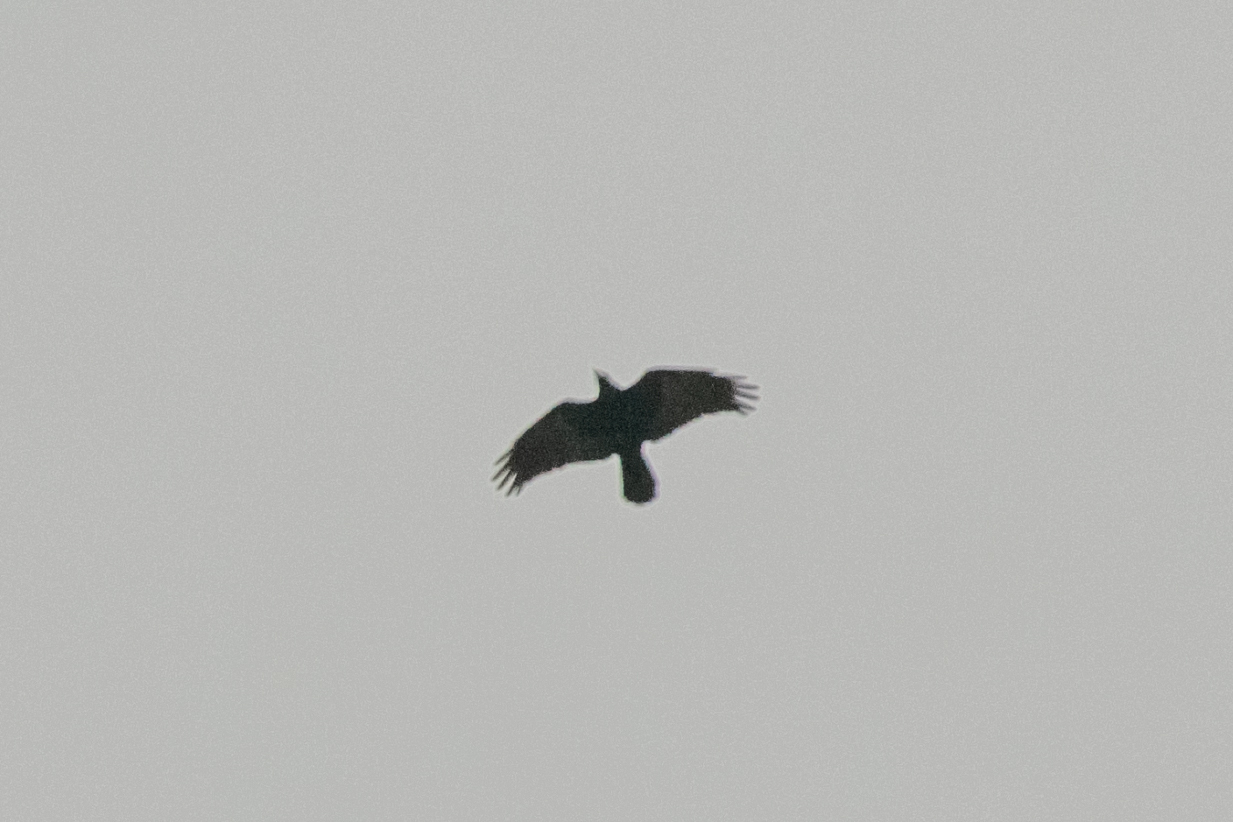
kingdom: Animalia
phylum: Chordata
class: Aves
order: Passeriformes
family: Corvidae
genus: Pyrrhocorax
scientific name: Pyrrhocorax graculus
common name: Alpine chough
